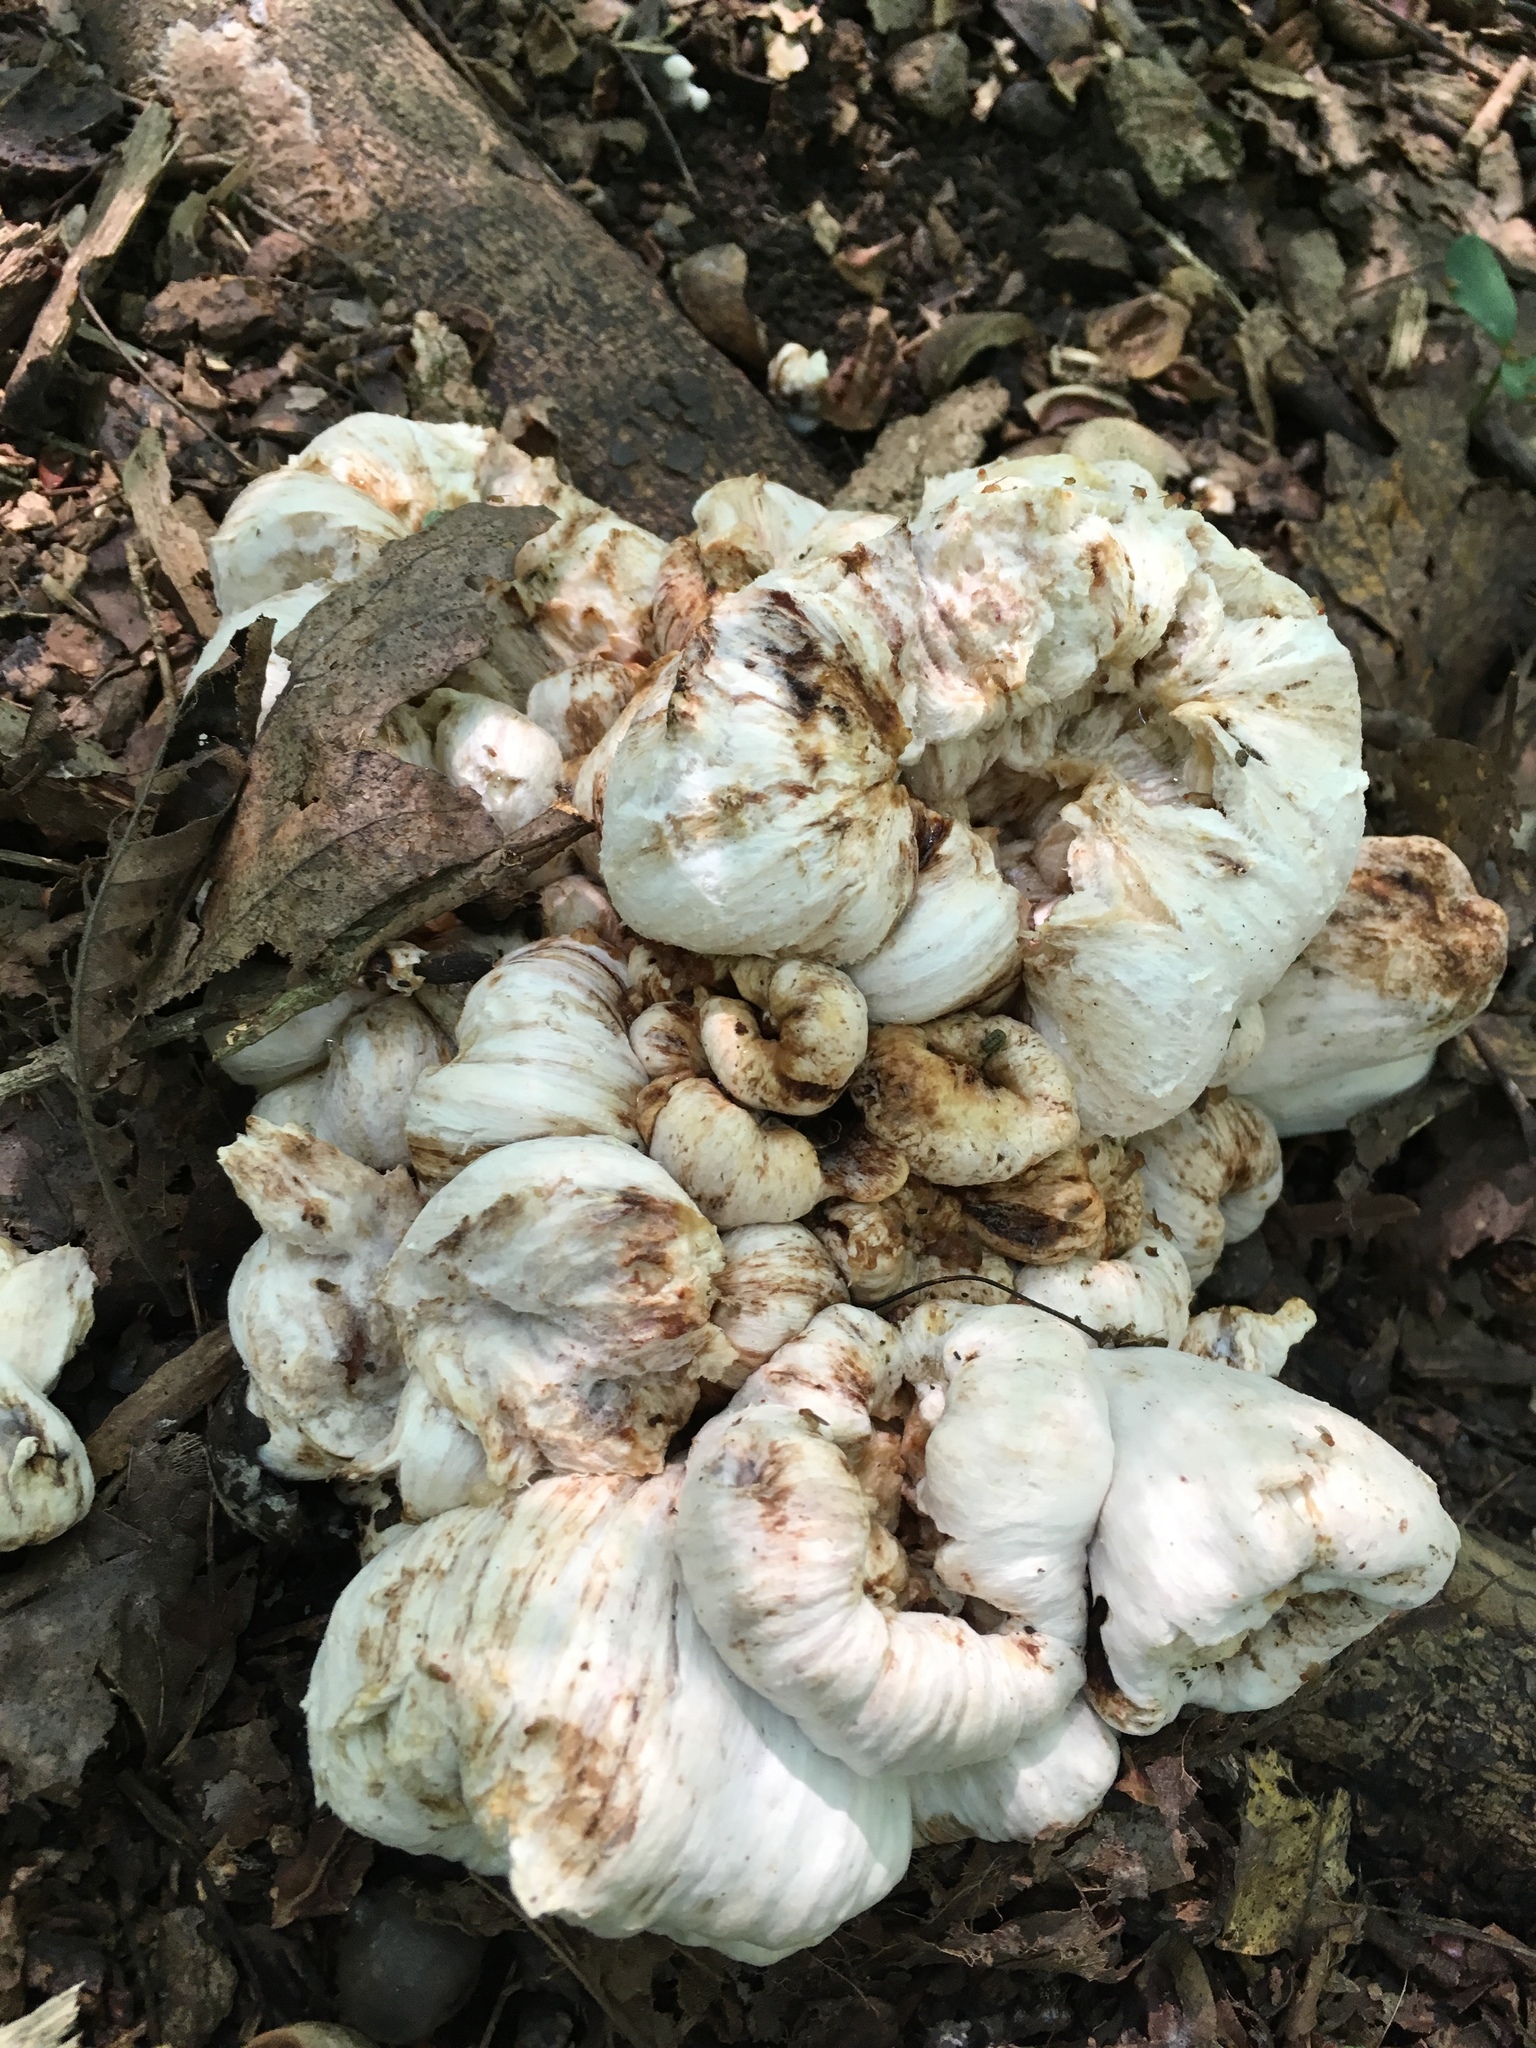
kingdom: Fungi
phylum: Basidiomycota
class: Agaricomycetes
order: Agaricales
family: Entolomataceae
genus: Entoloma
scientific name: Entoloma abortivum
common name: Aborted entoloma
